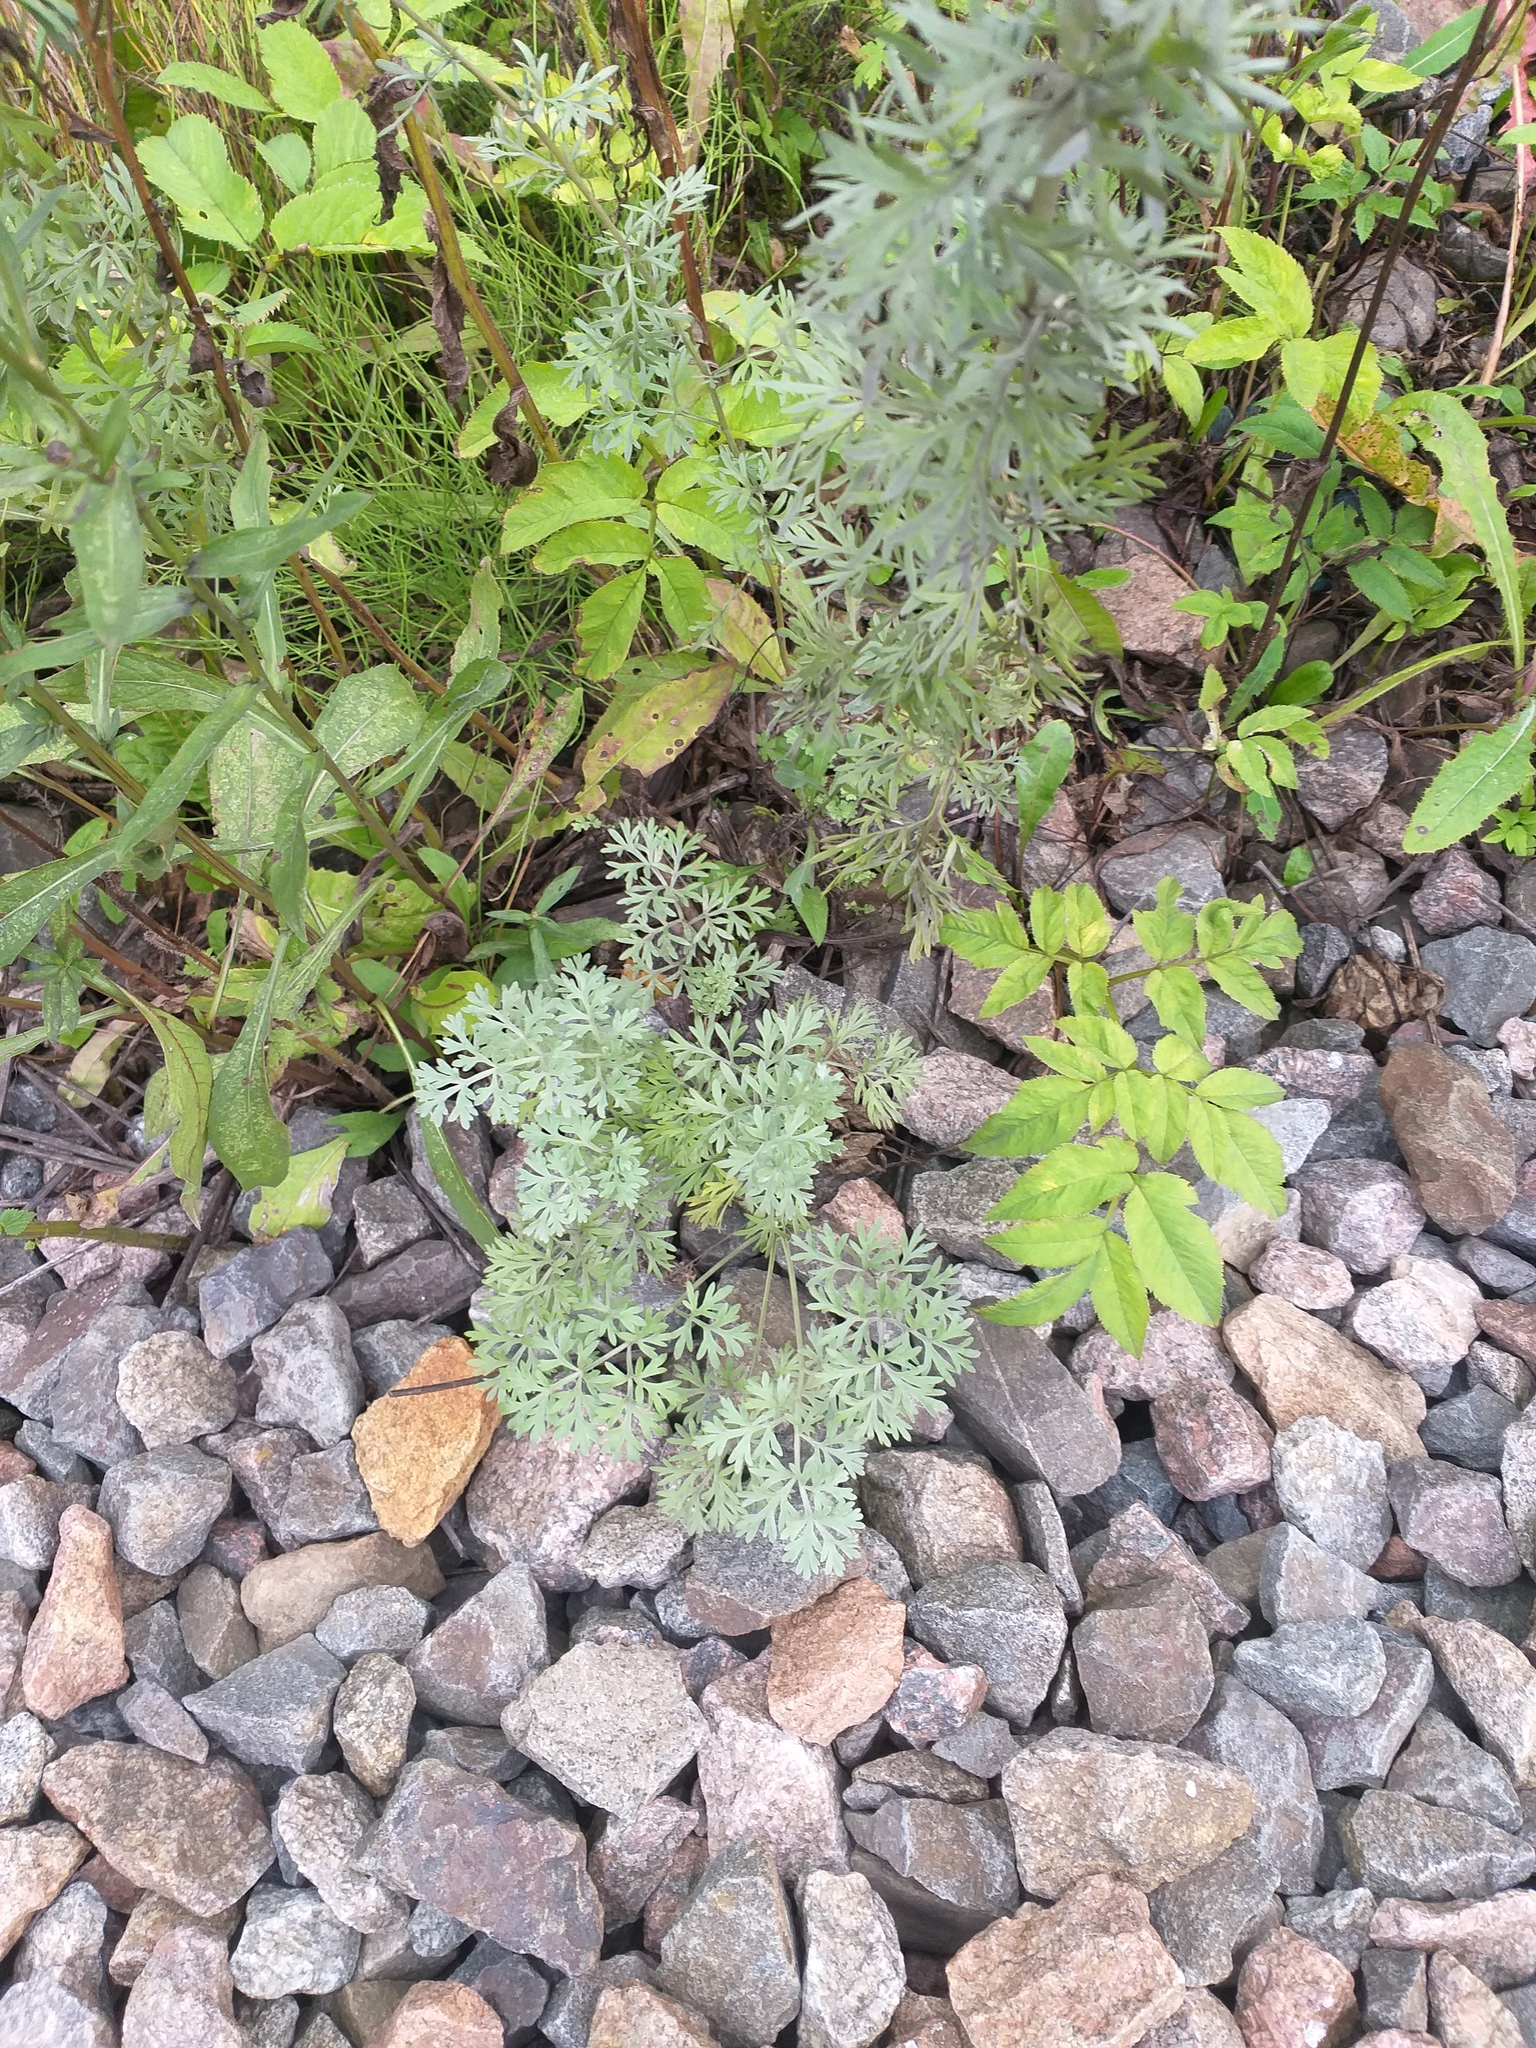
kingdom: Plantae
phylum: Tracheophyta
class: Magnoliopsida
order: Asterales
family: Asteraceae
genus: Artemisia
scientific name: Artemisia absinthium
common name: Wormwood
